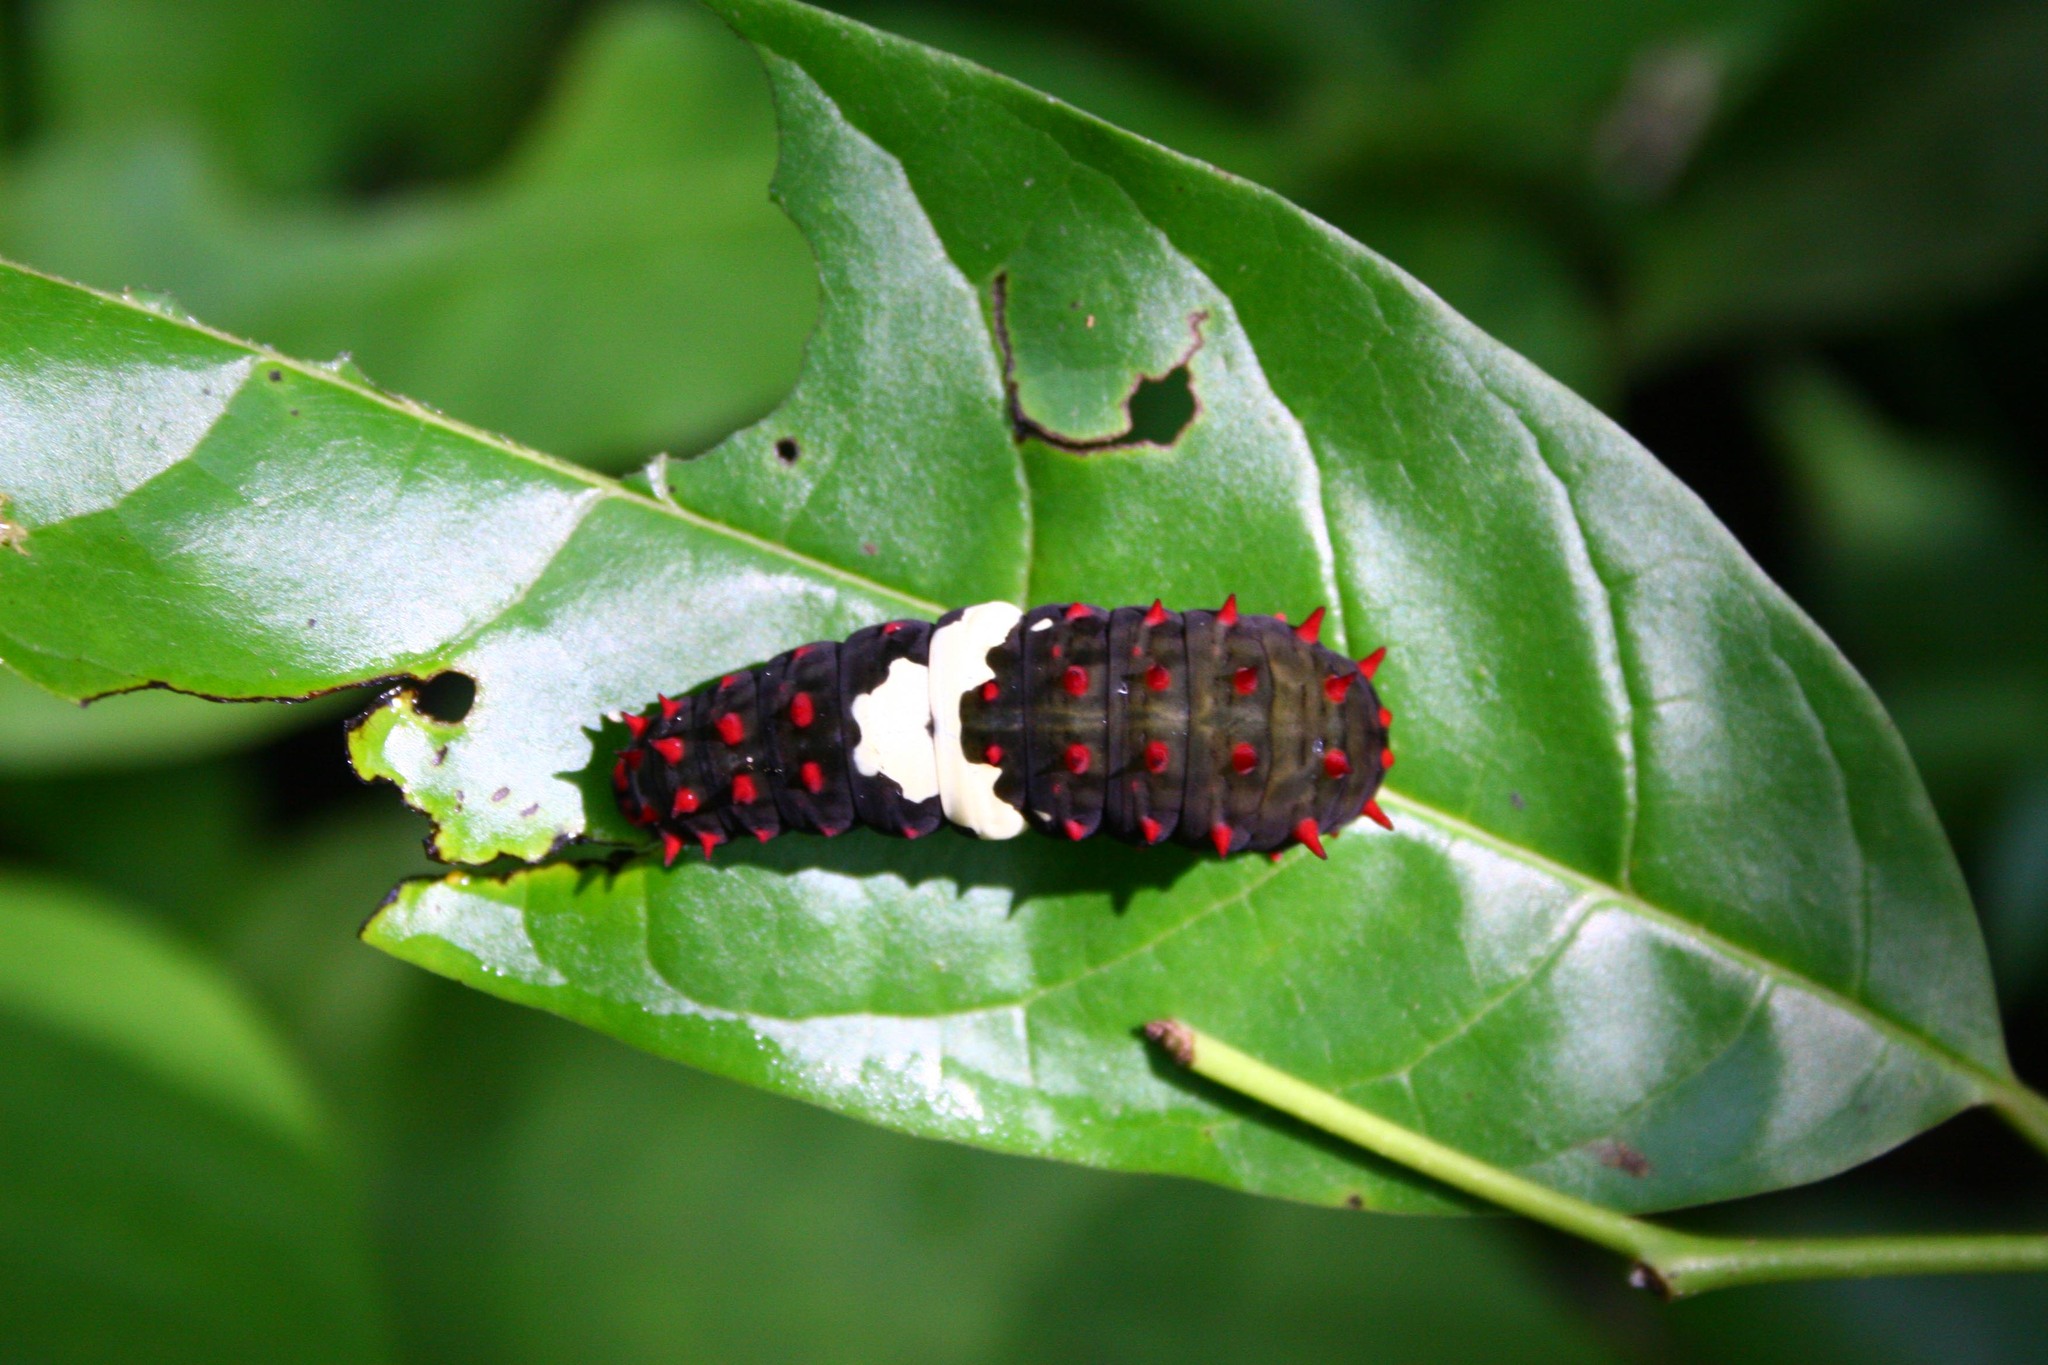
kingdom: Animalia
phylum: Arthropoda
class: Insecta
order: Lepidoptera
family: Papilionidae
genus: Mimoides
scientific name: Mimoides ilus
